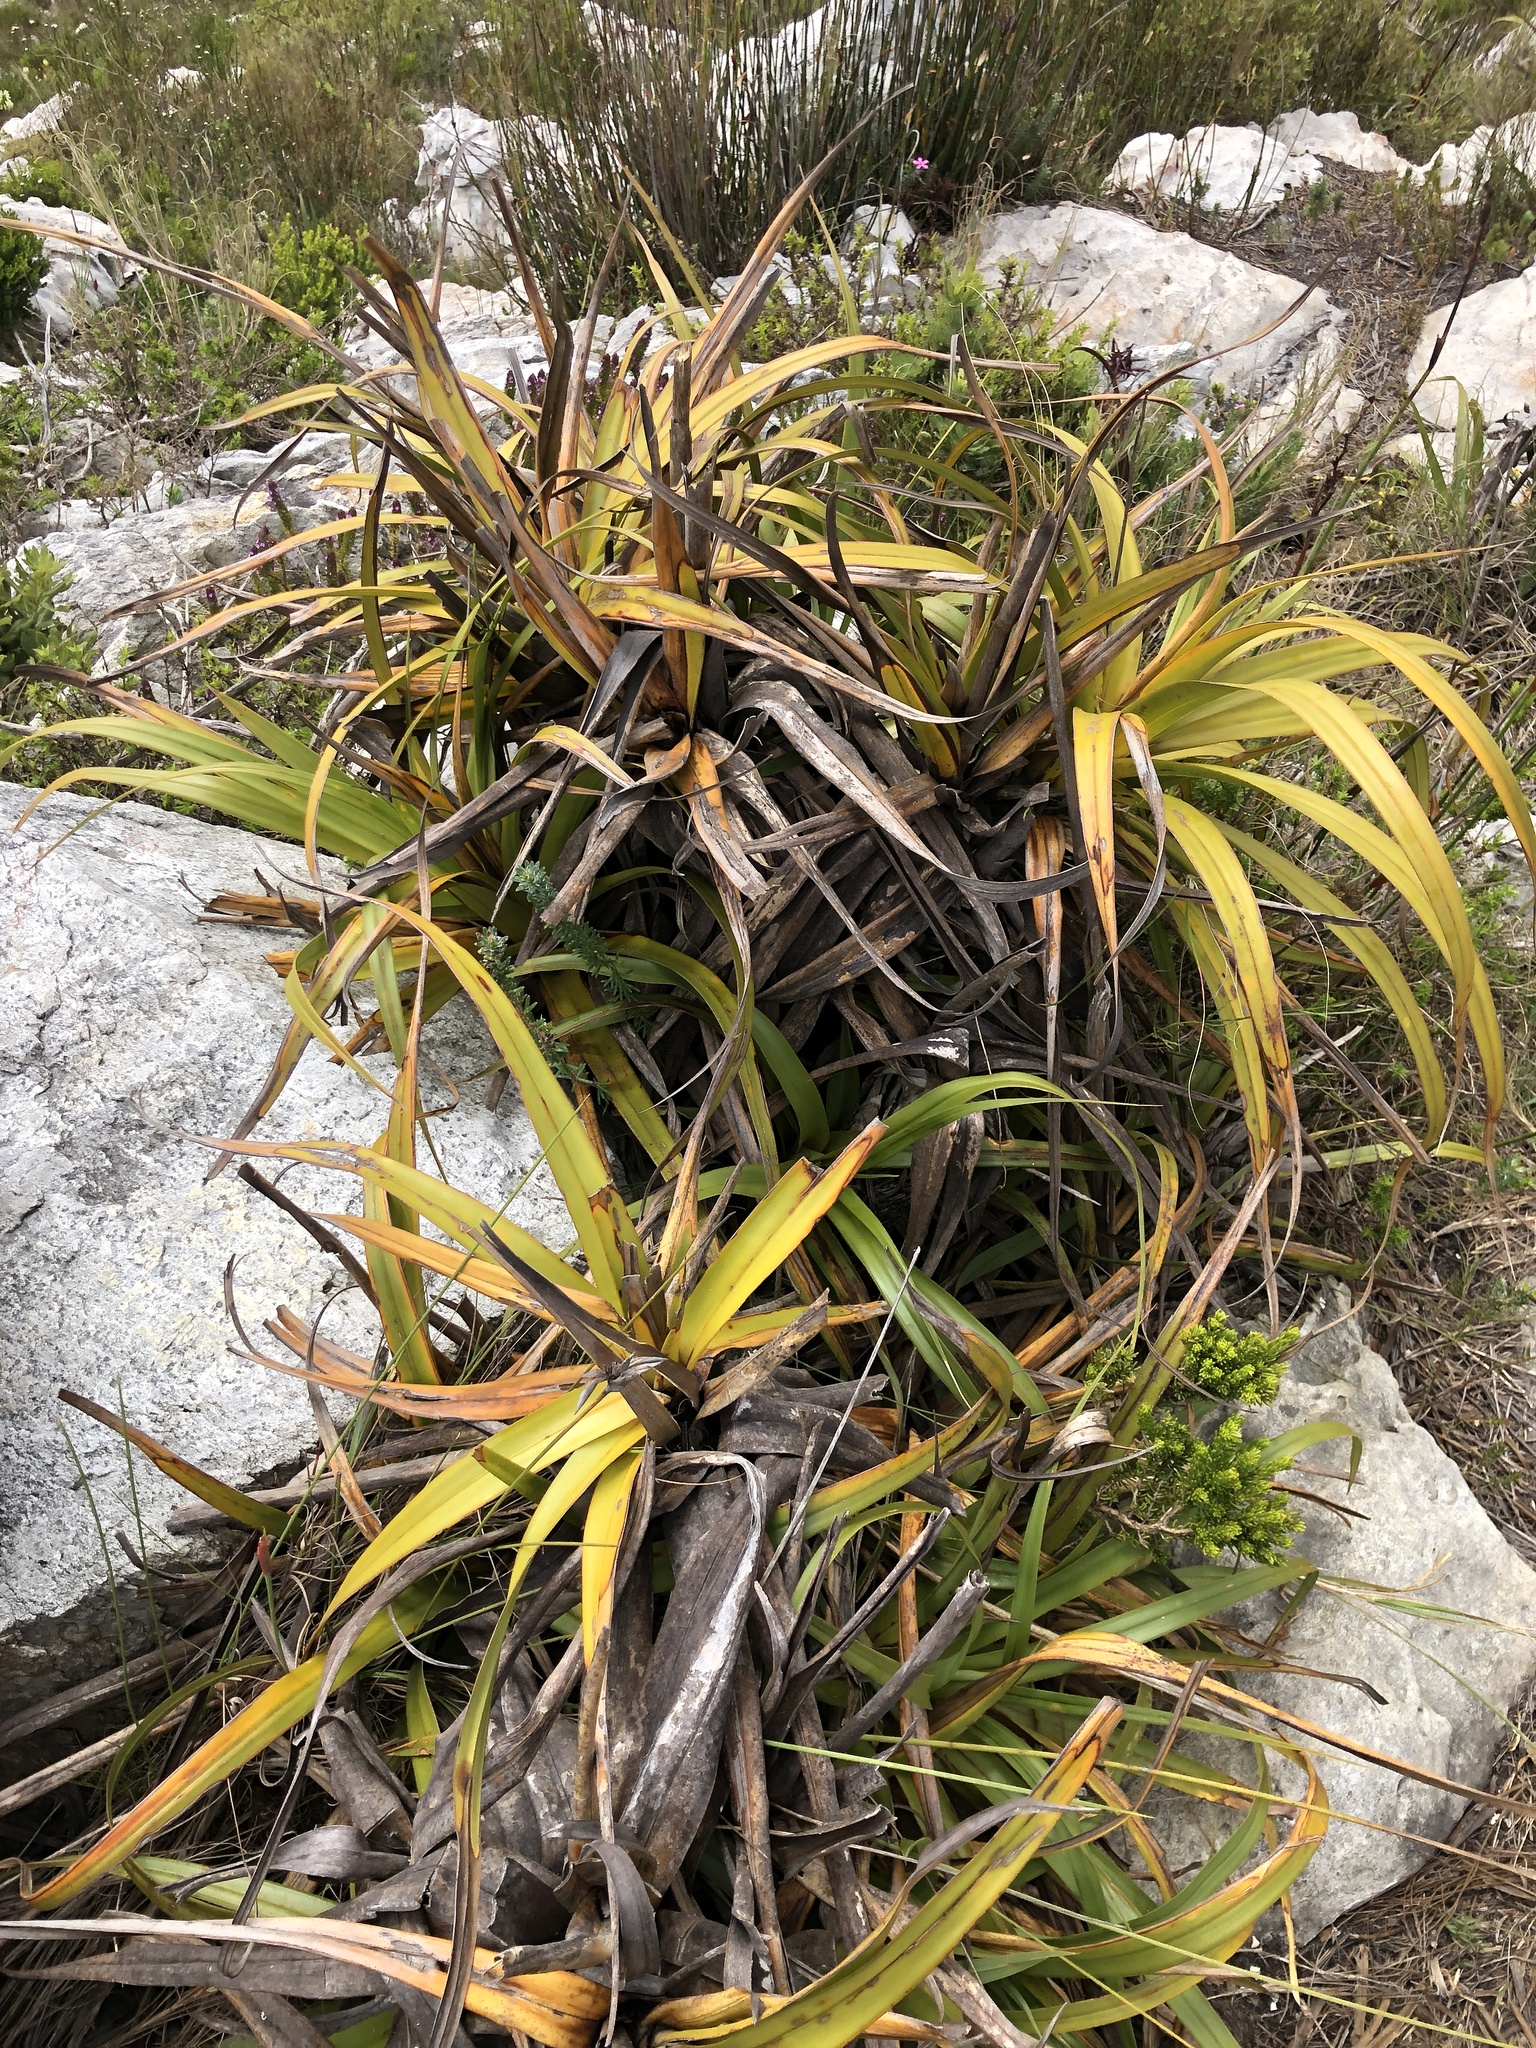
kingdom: Plantae
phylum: Tracheophyta
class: Liliopsida
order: Poales
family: Cyperaceae
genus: Tetraria
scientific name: Tetraria thermalis
